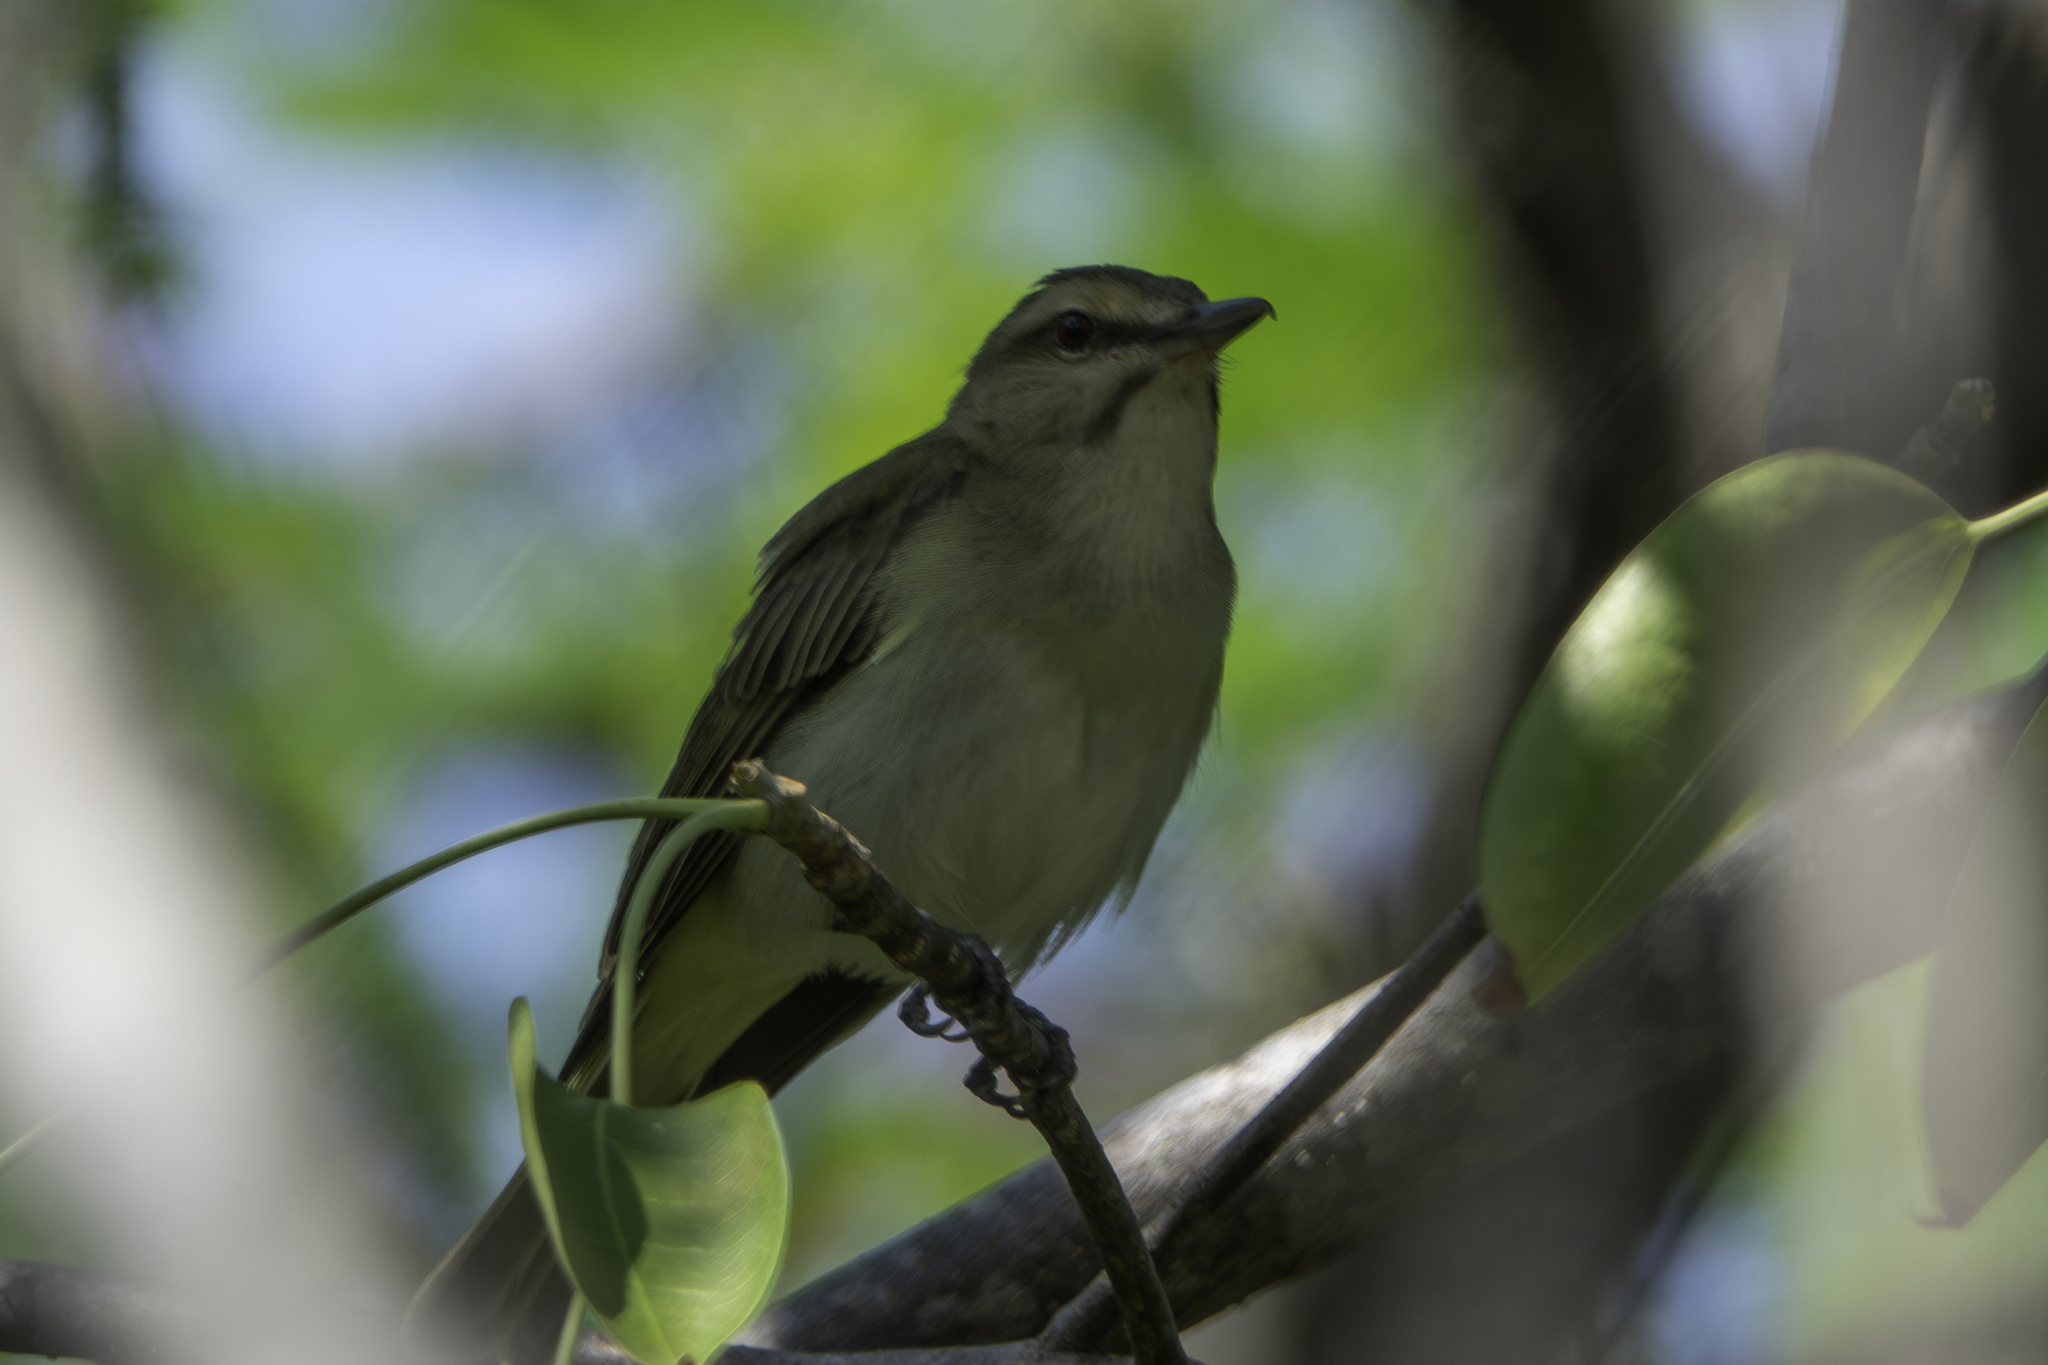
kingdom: Animalia
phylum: Chordata
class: Aves
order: Passeriformes
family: Vireonidae
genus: Vireo
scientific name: Vireo altiloquus
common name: Black-whiskered vireo
